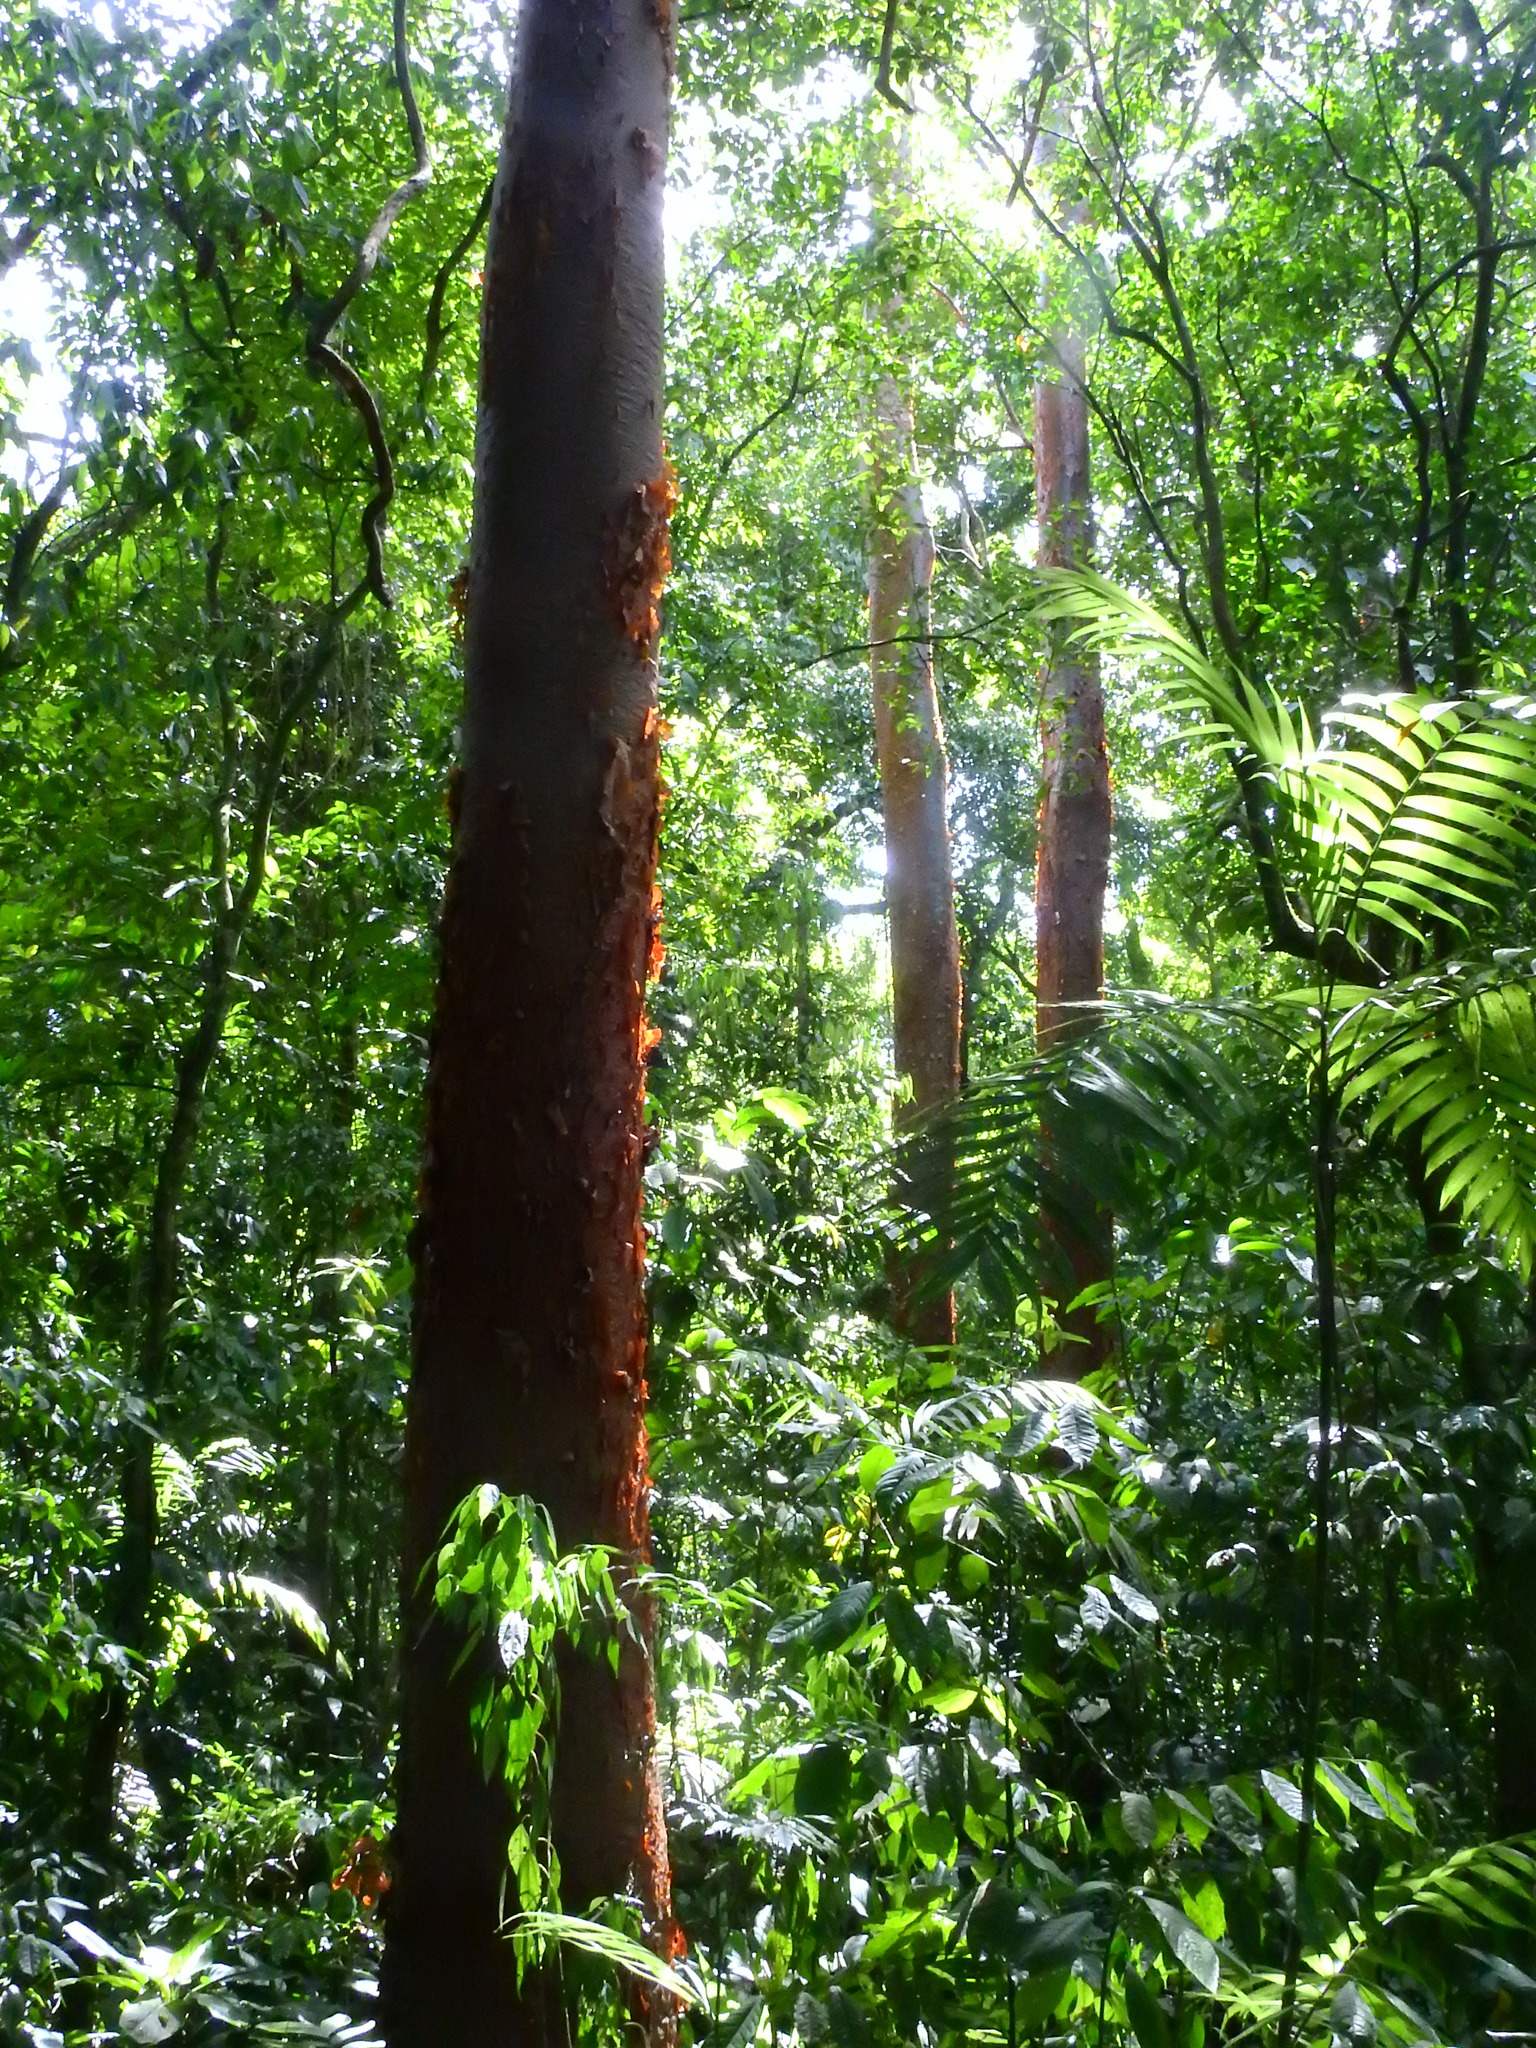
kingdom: Plantae
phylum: Tracheophyta
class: Magnoliopsida
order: Sapindales
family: Burseraceae
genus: Bursera
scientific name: Bursera simaruba
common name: Turpentine tree
